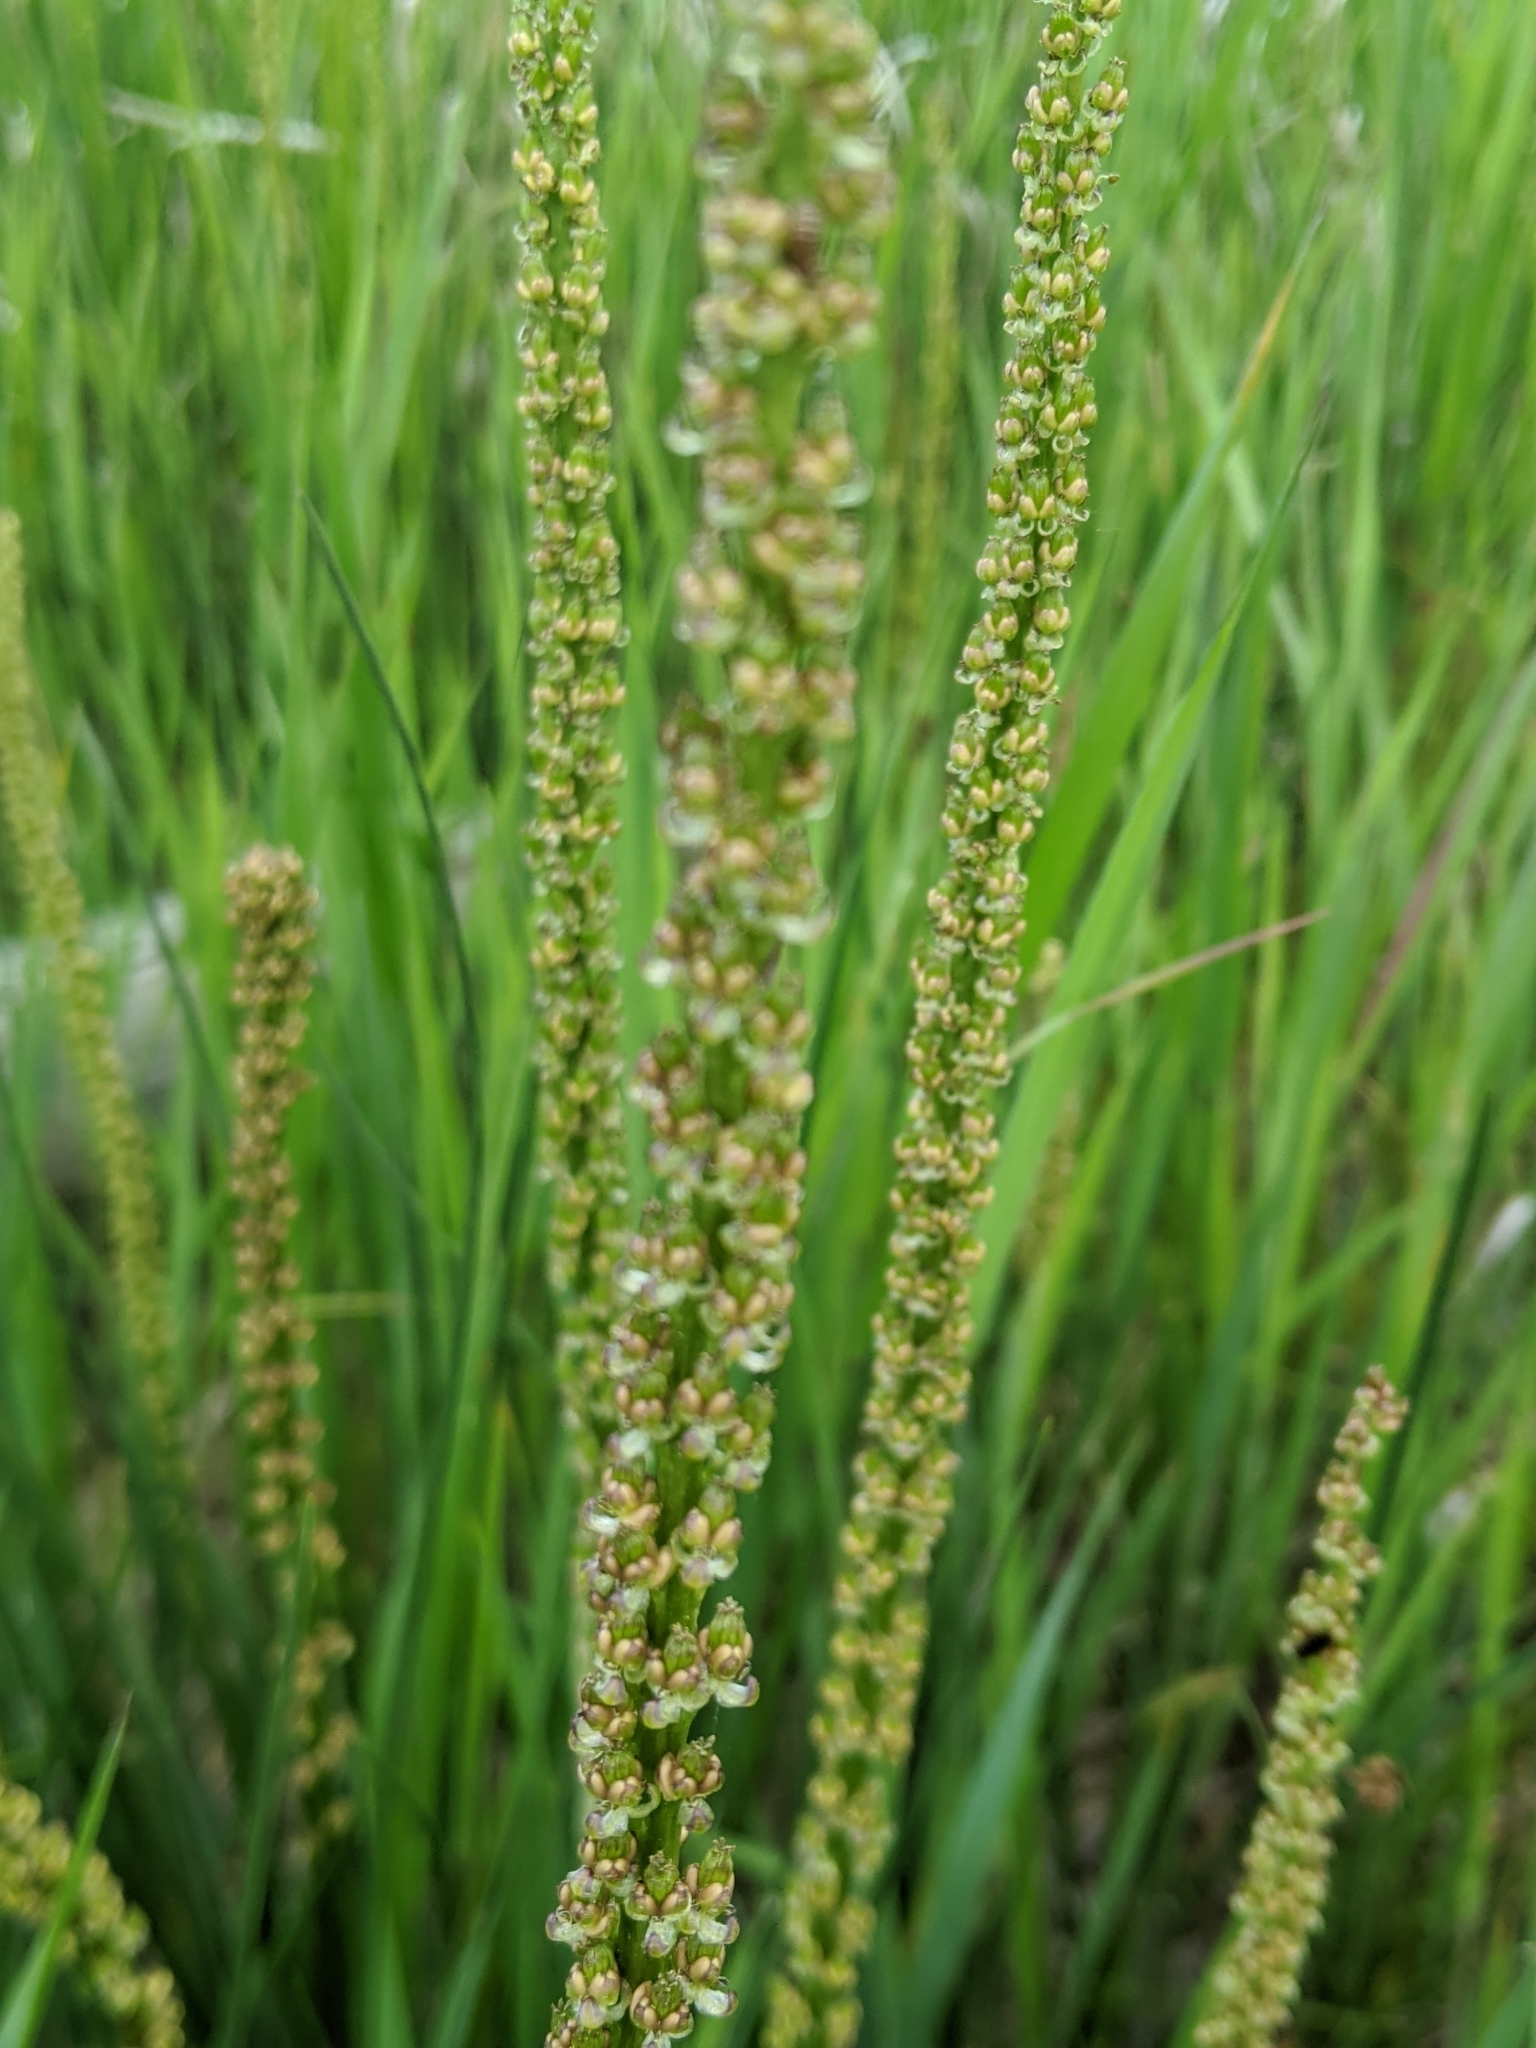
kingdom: Plantae
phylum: Tracheophyta
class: Liliopsida
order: Alismatales
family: Juncaginaceae
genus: Triglochin
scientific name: Triglochin maritima
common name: Sea arrowgrass
